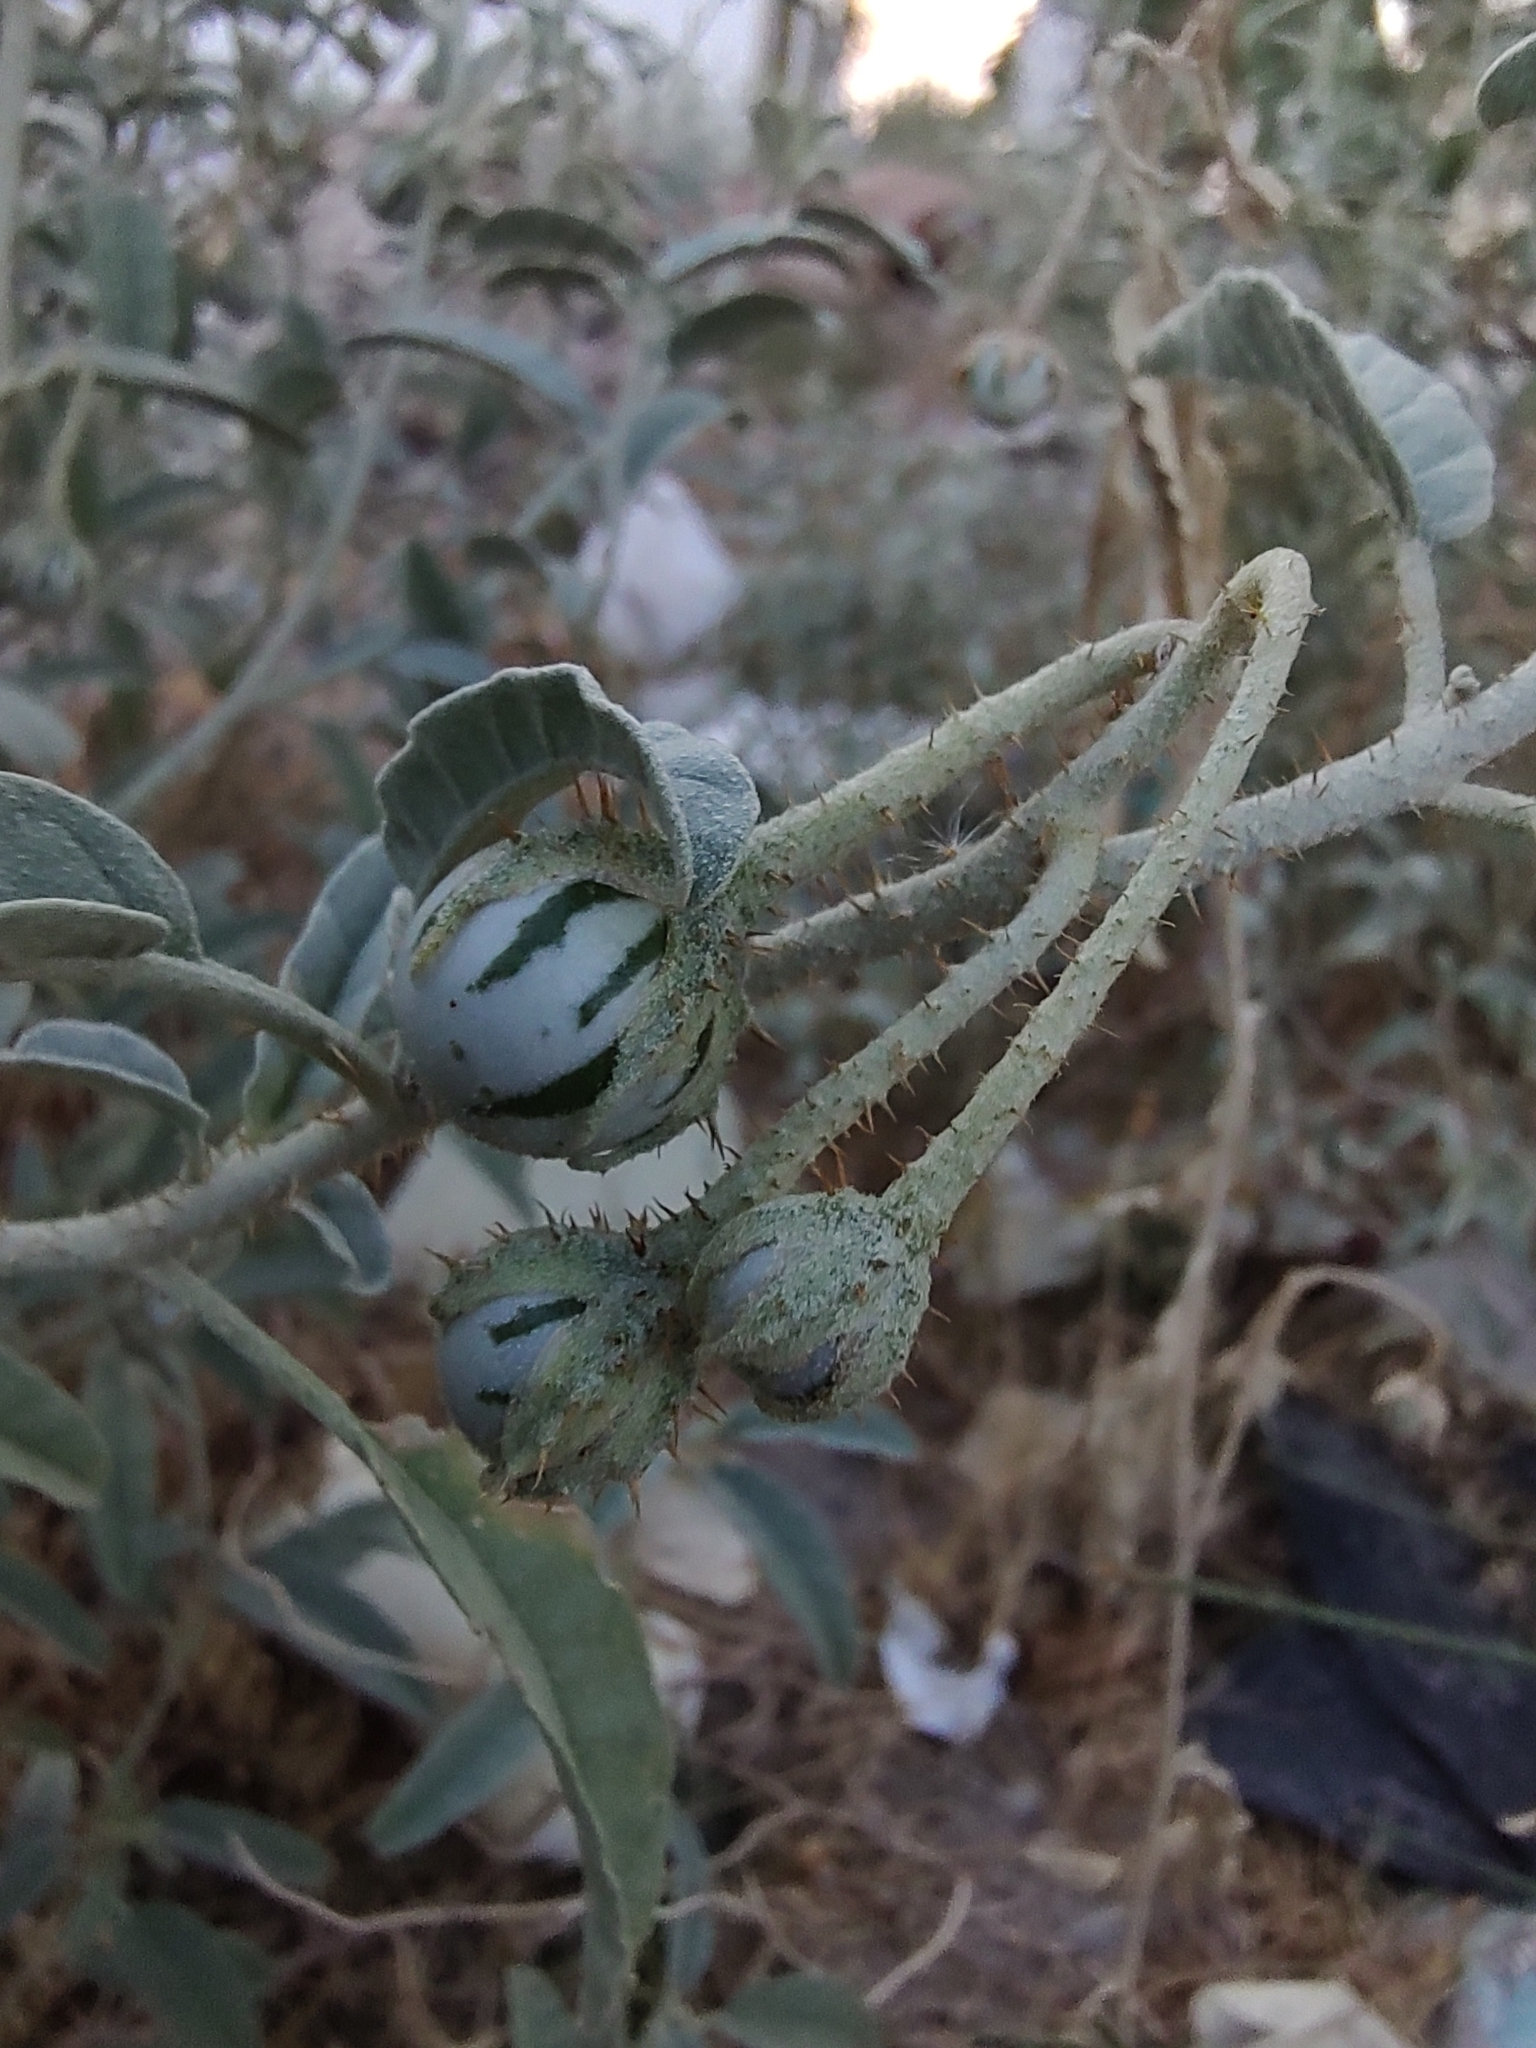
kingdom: Plantae
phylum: Tracheophyta
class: Magnoliopsida
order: Solanales
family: Solanaceae
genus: Solanum
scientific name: Solanum elaeagnifolium
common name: Silverleaf nightshade
